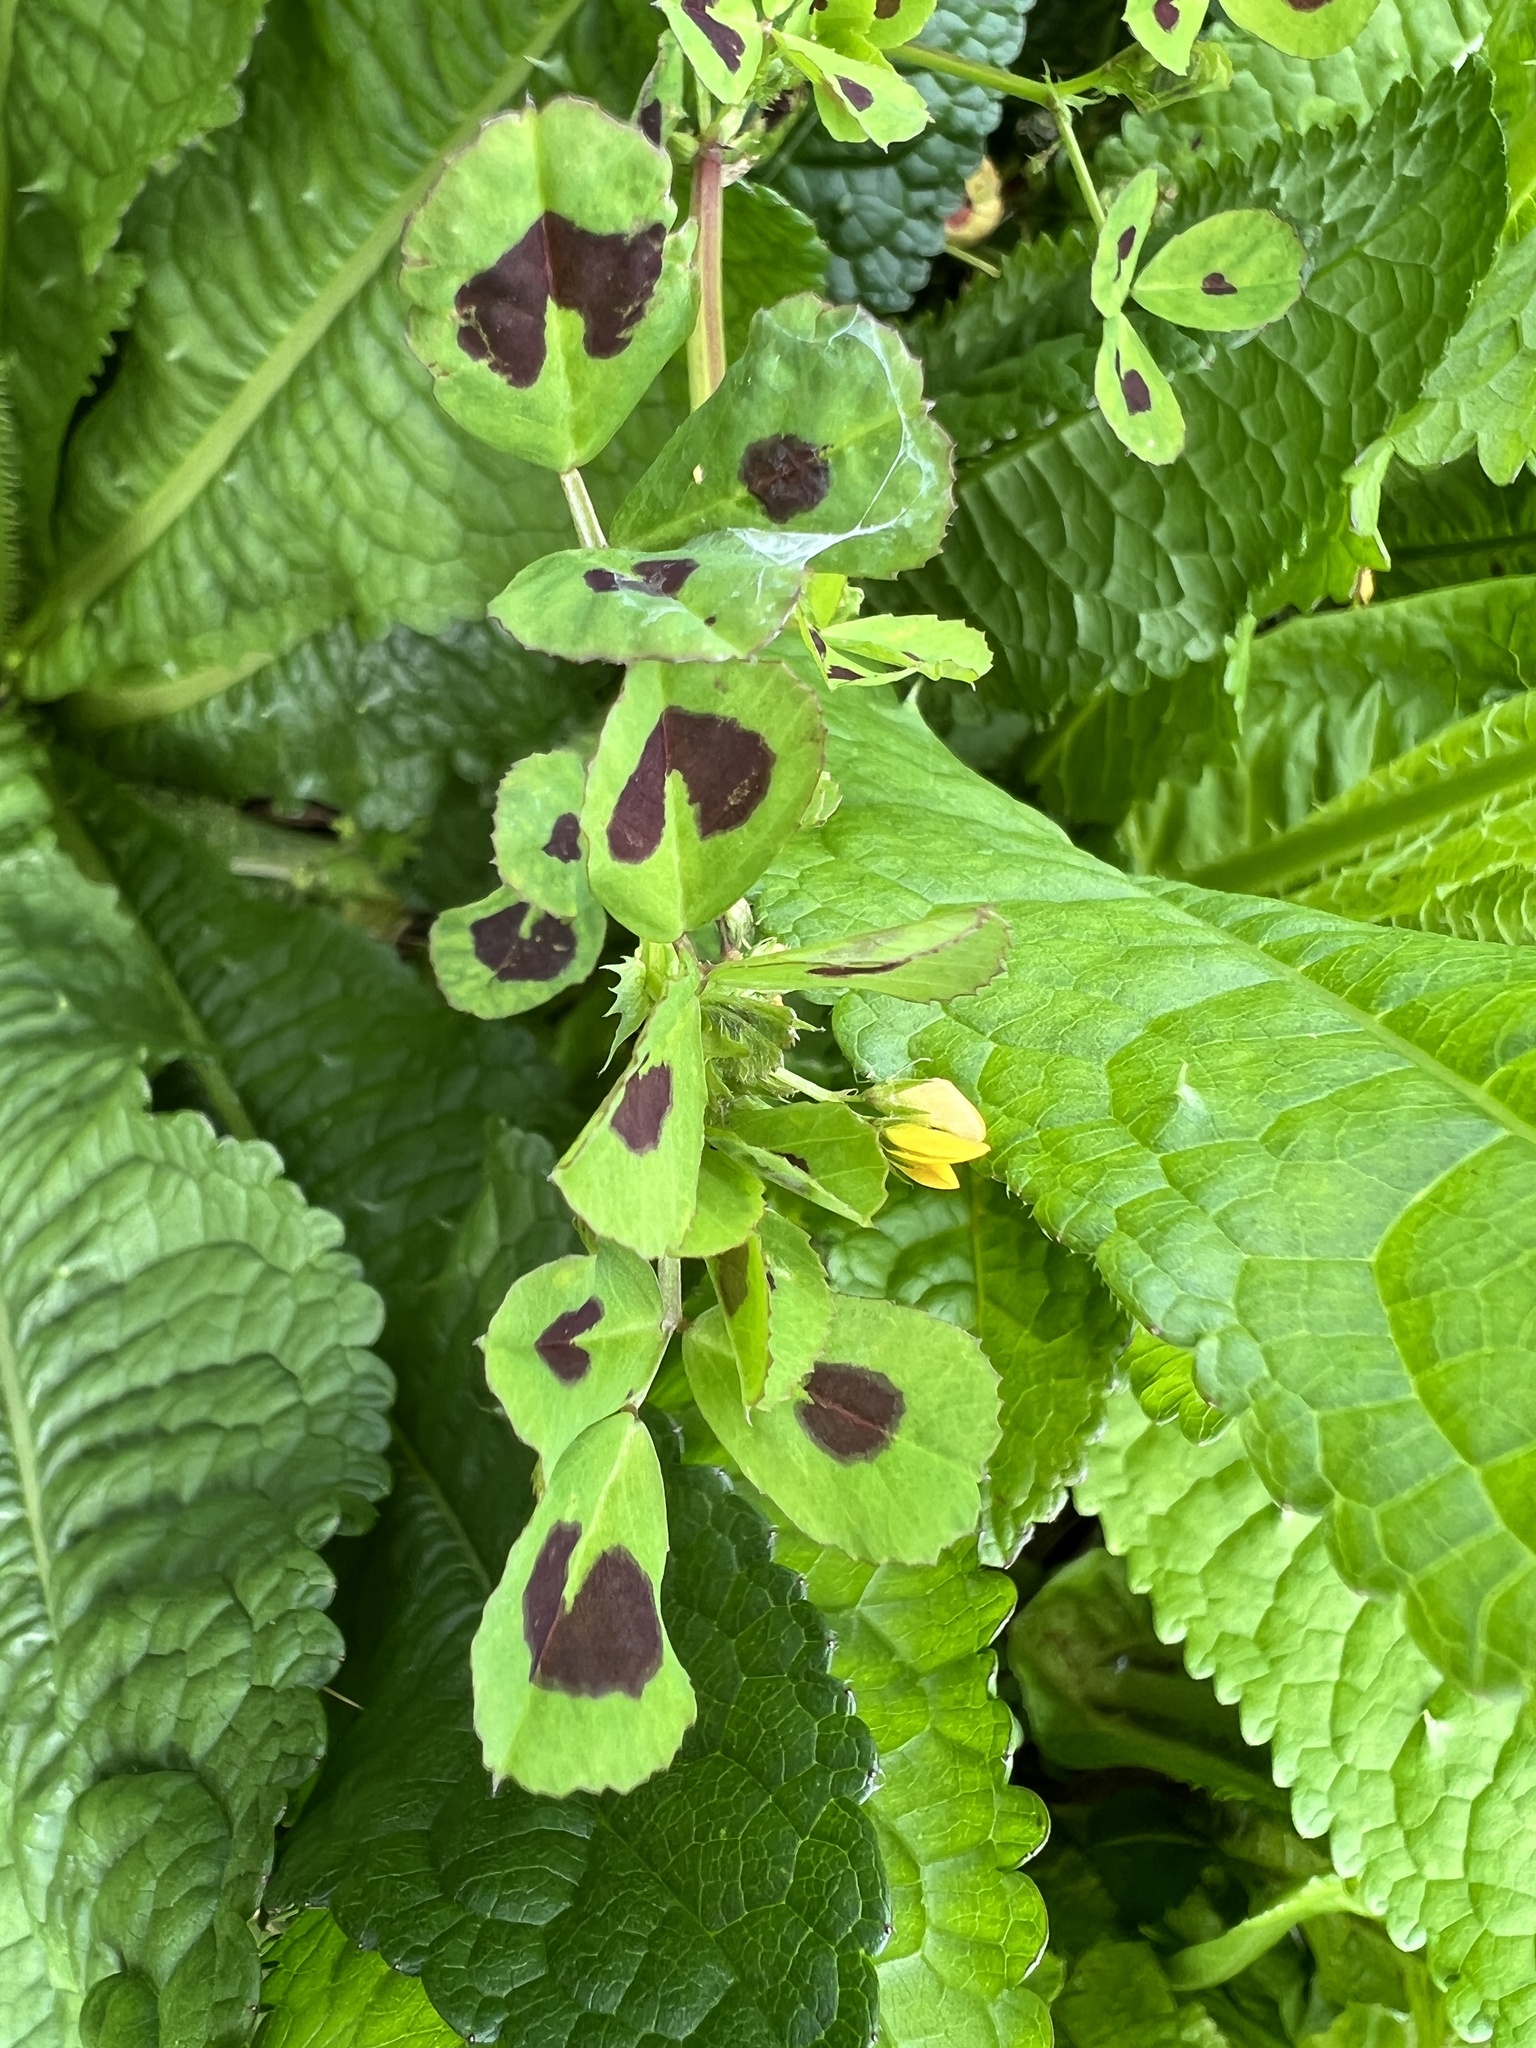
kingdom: Plantae
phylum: Tracheophyta
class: Magnoliopsida
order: Fabales
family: Fabaceae
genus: Medicago
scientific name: Medicago arabica
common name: Spotted medick
